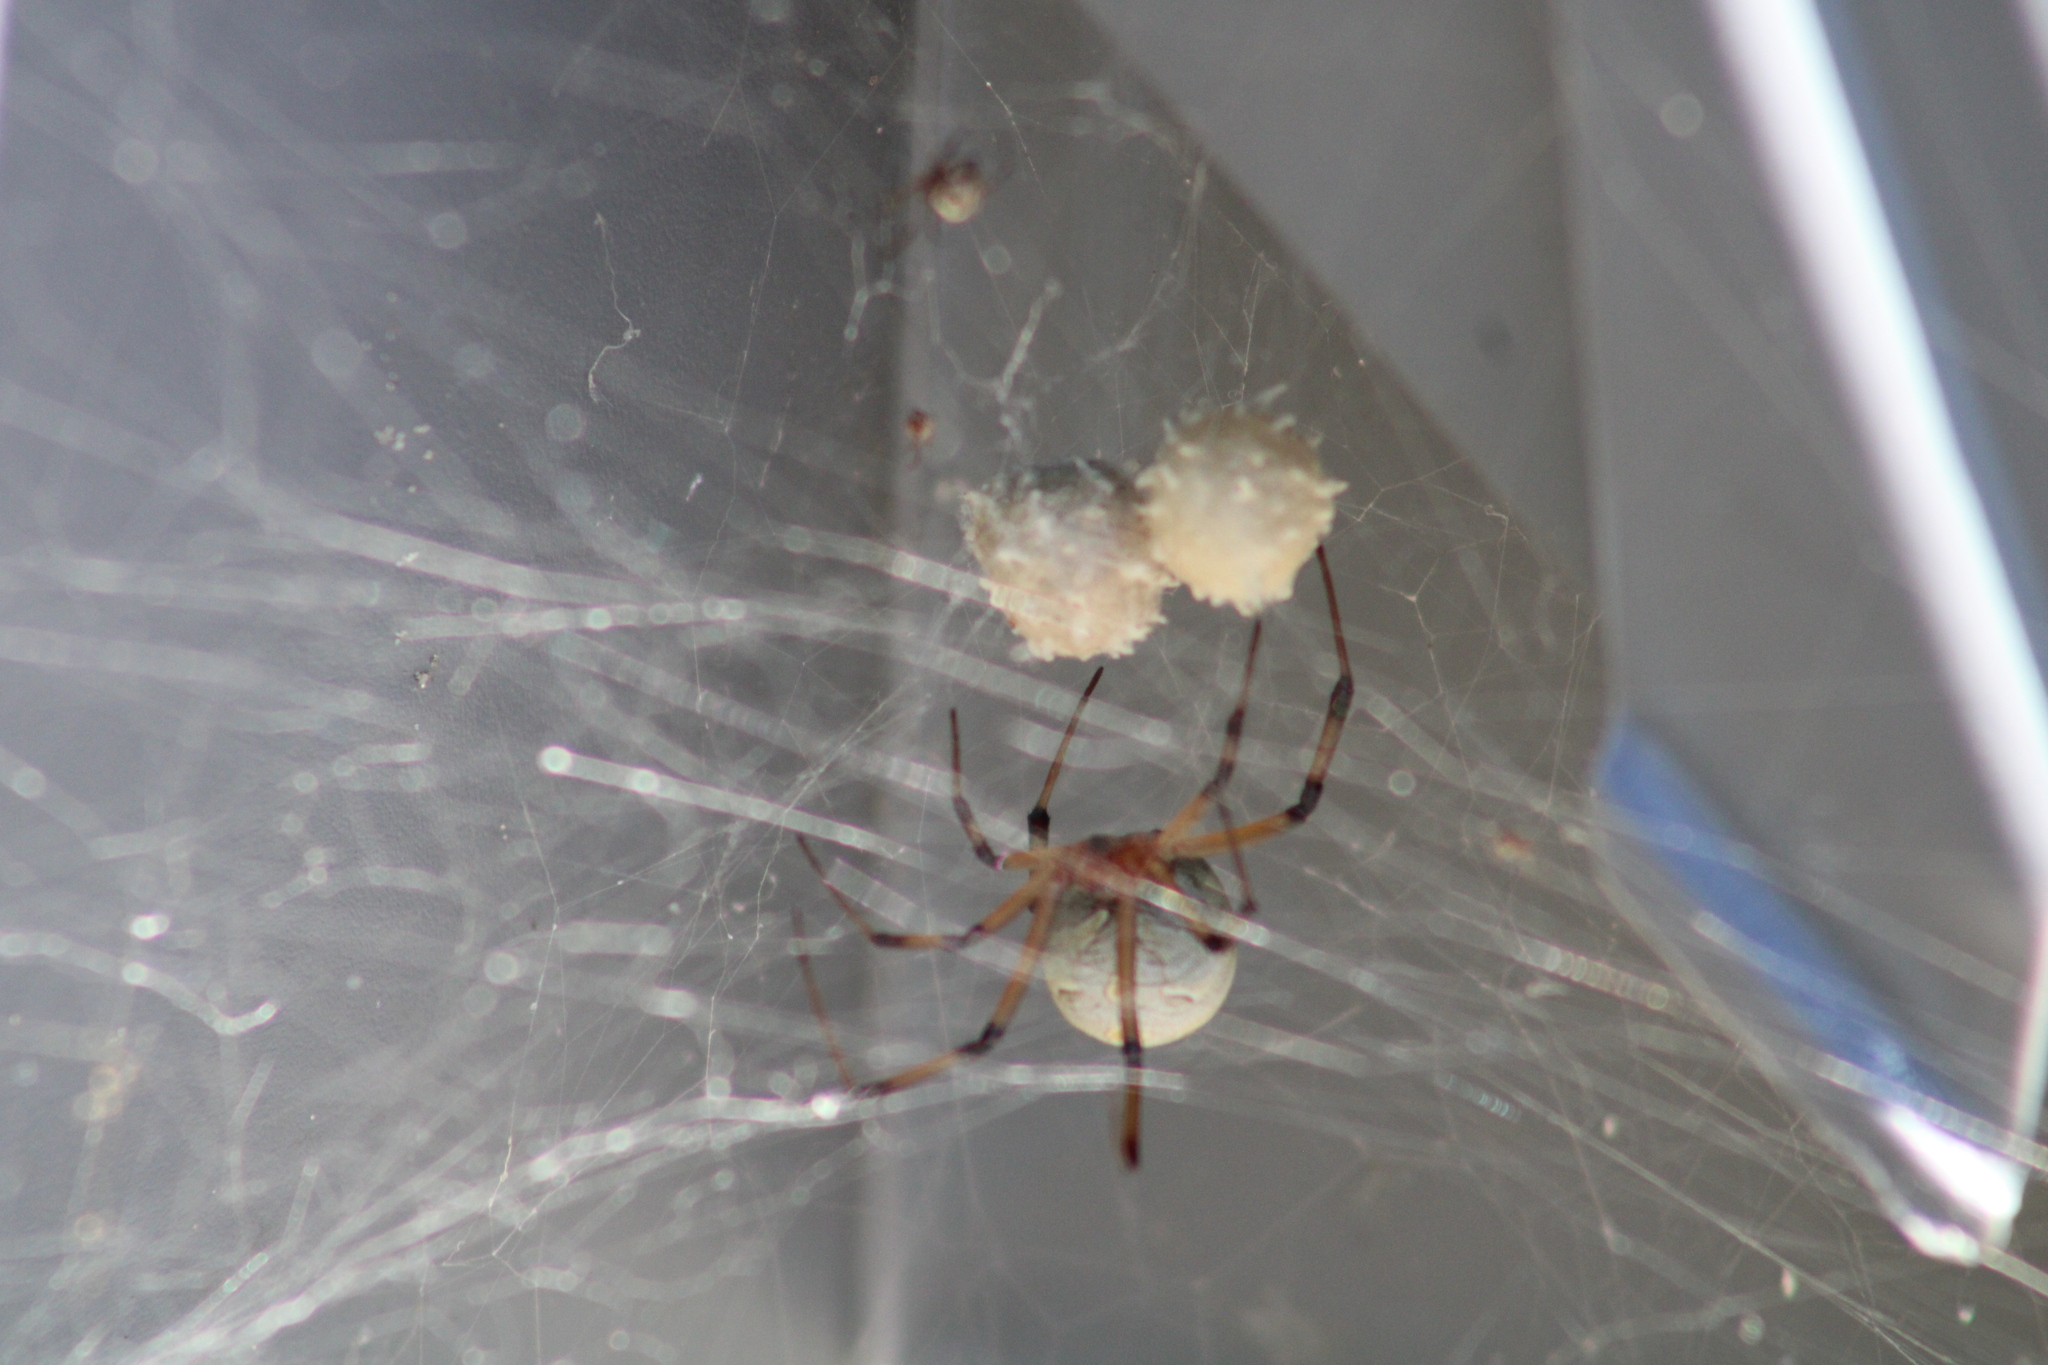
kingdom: Animalia
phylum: Arthropoda
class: Arachnida
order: Araneae
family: Theridiidae
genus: Latrodectus
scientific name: Latrodectus geometricus
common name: Brown widow spider
